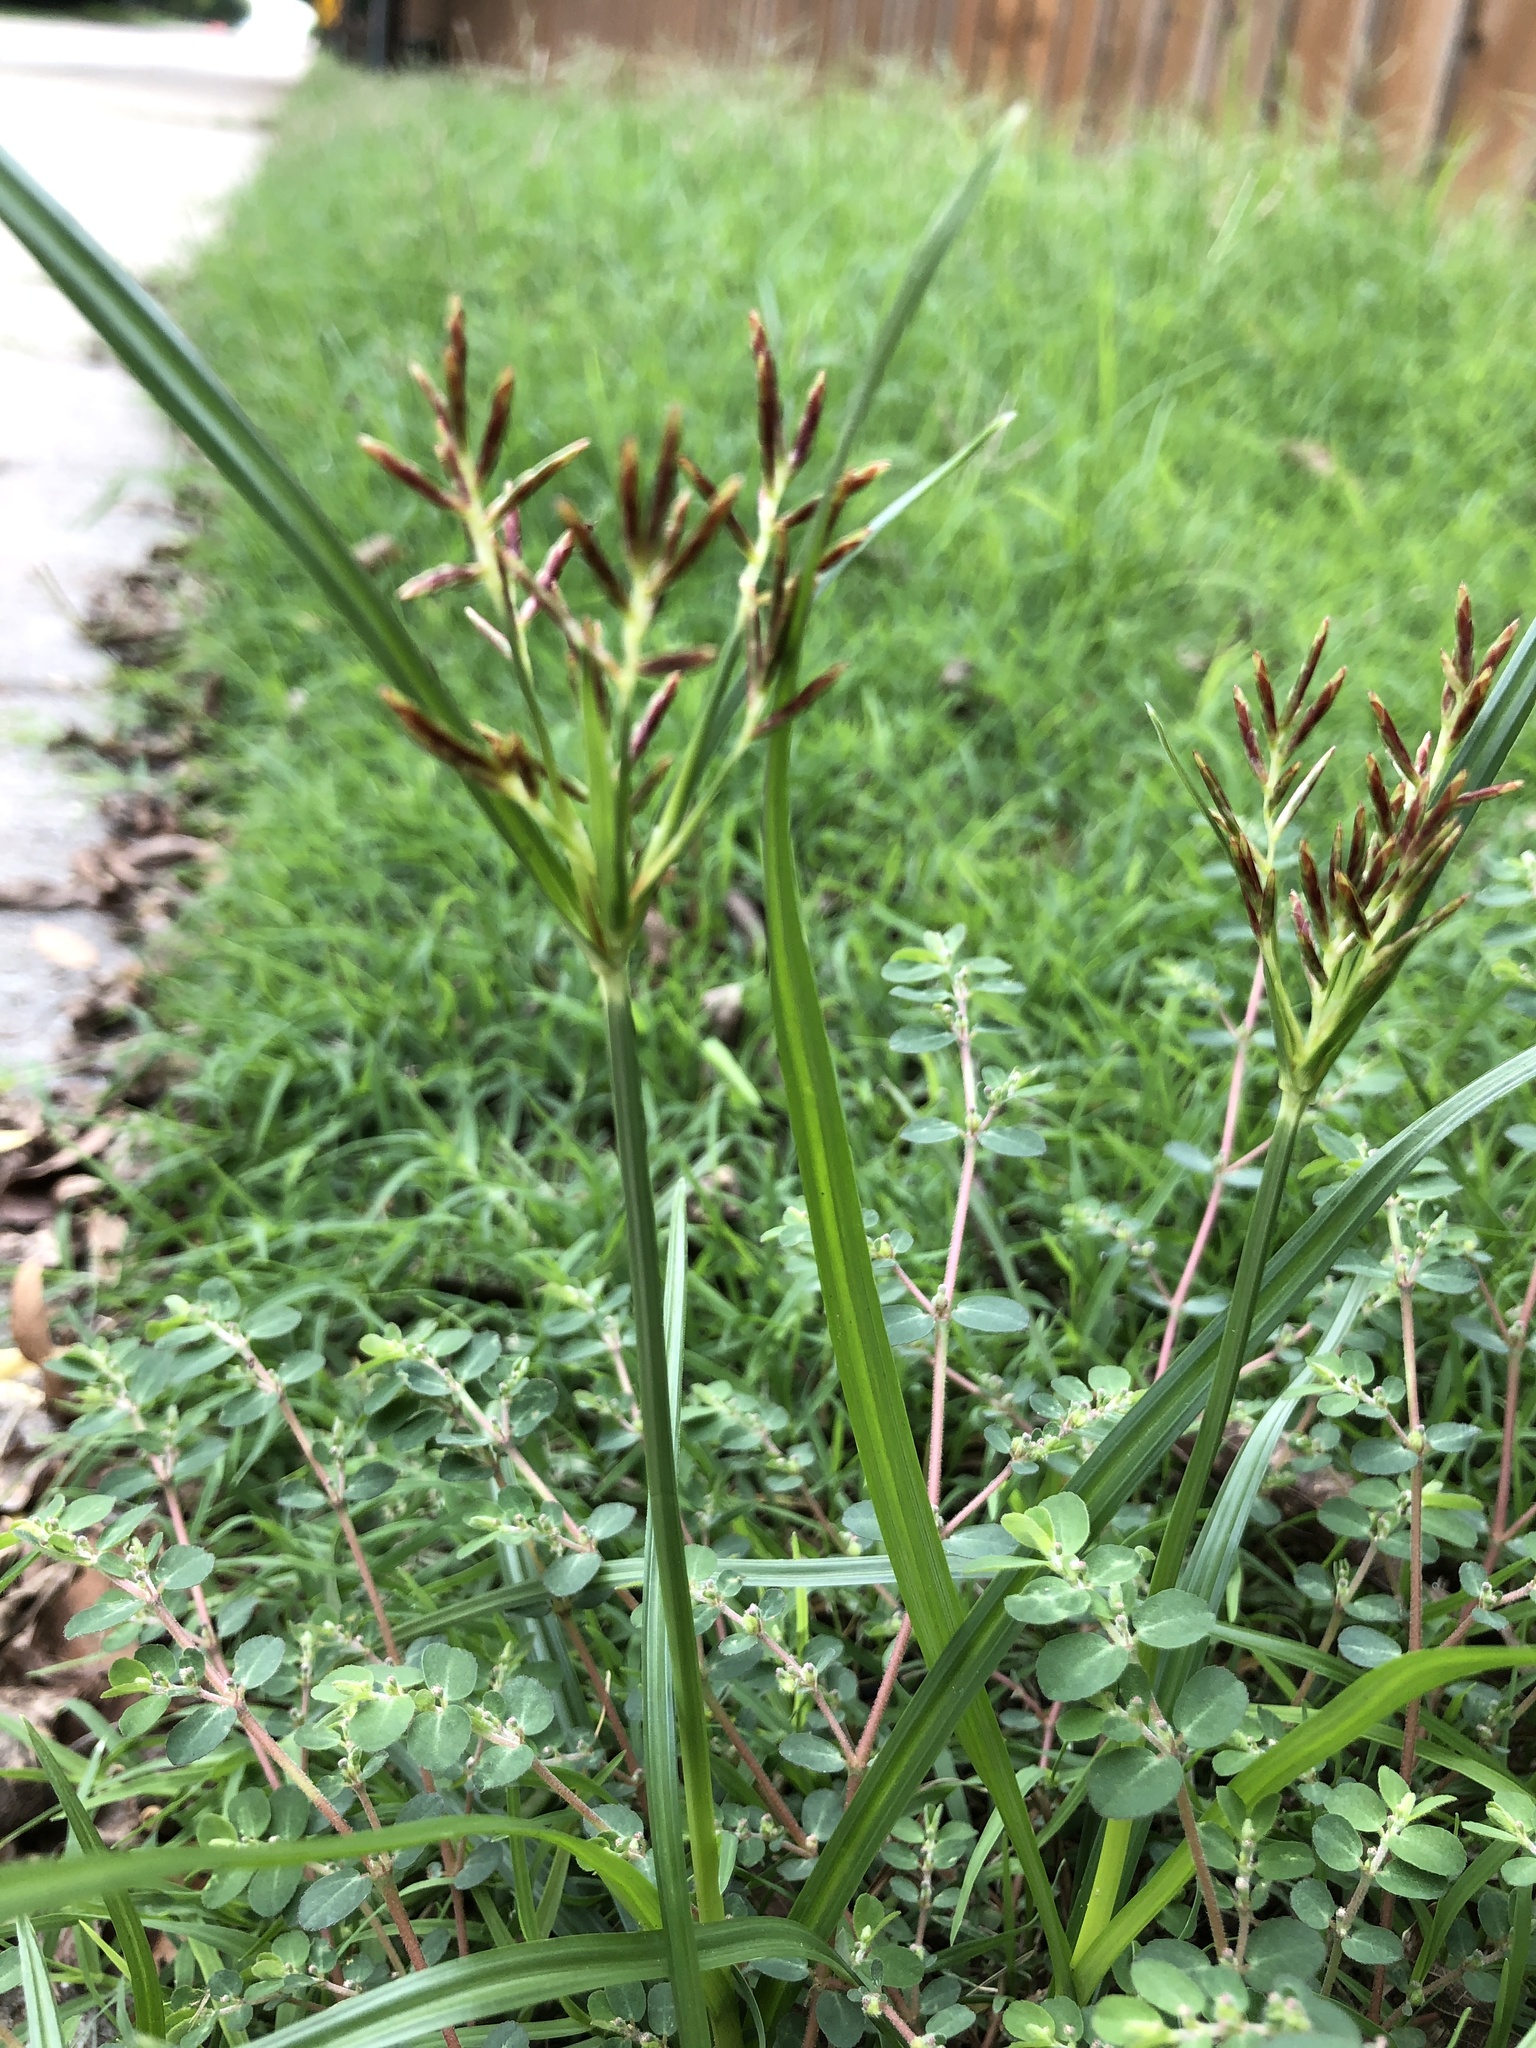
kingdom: Plantae
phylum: Tracheophyta
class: Liliopsida
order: Poales
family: Cyperaceae
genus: Cyperus
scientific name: Cyperus rotundus
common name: Nutgrass
